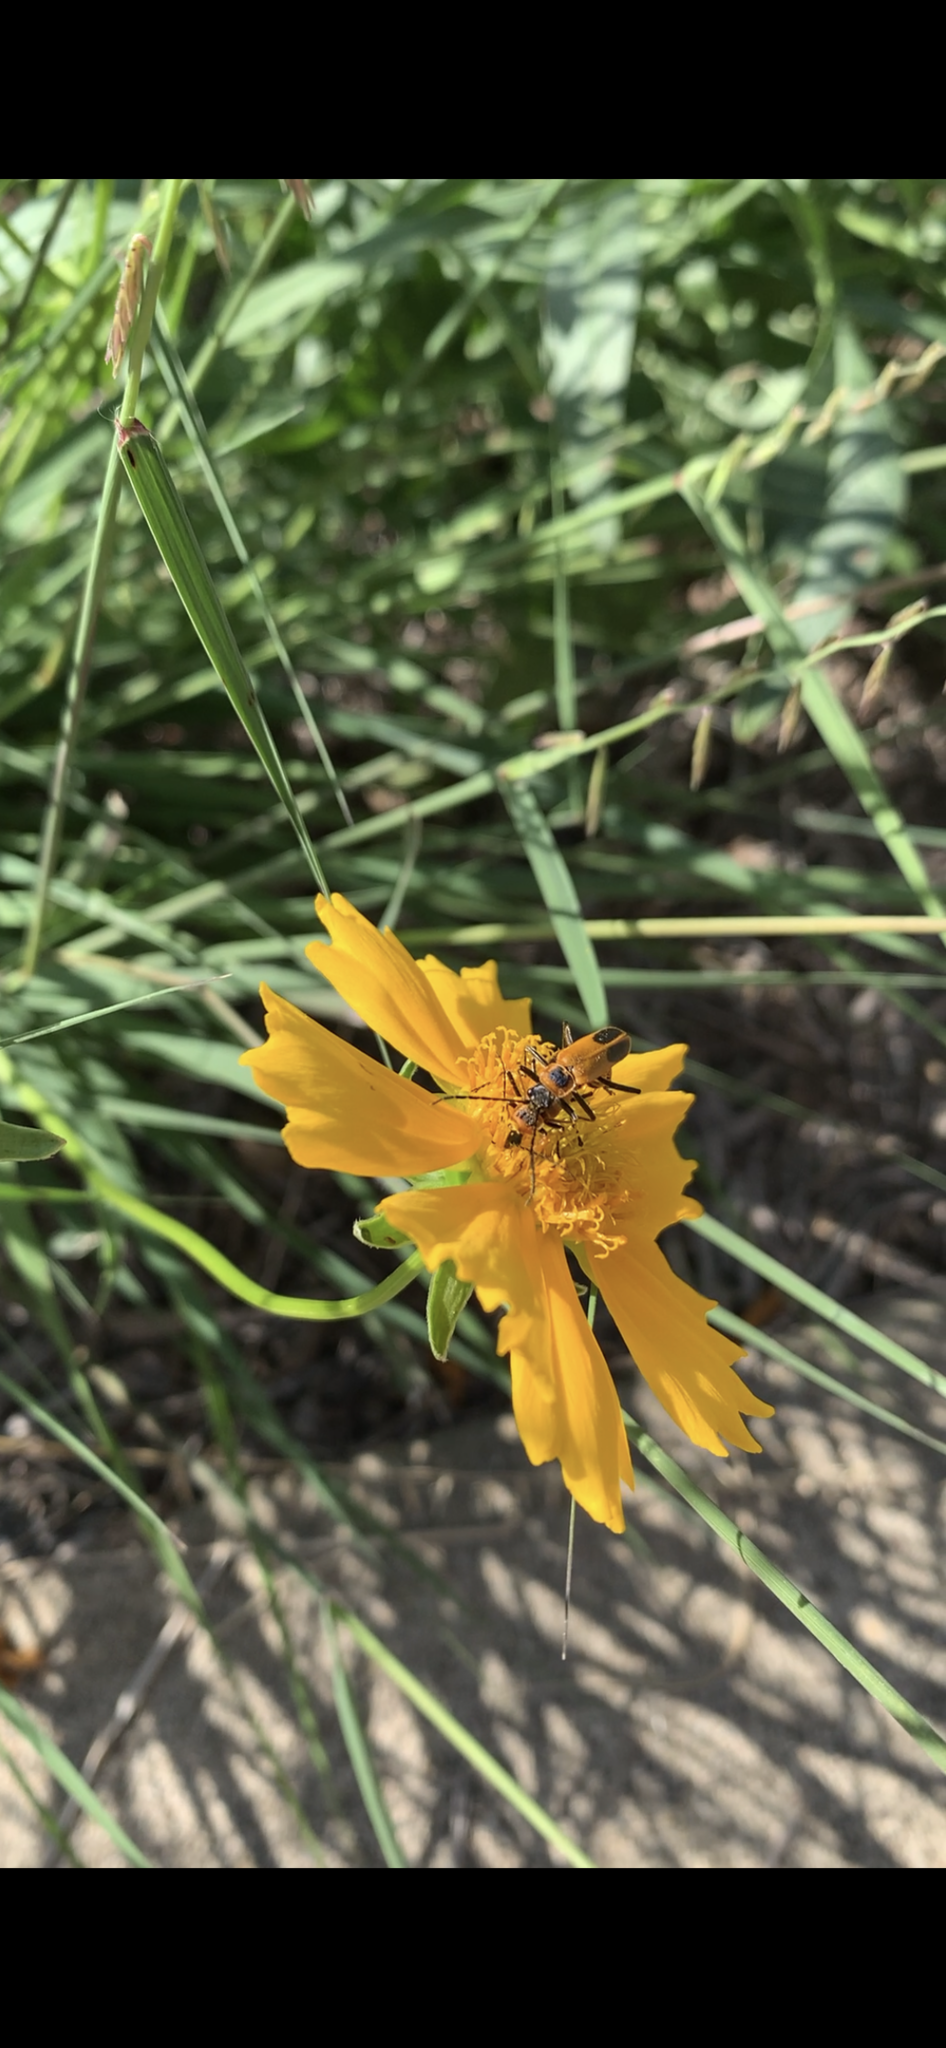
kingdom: Animalia
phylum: Arthropoda
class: Insecta
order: Coleoptera
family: Cantharidae
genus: Chauliognathus
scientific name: Chauliognathus pensylvanicus
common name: Goldenrod soldier beetle
